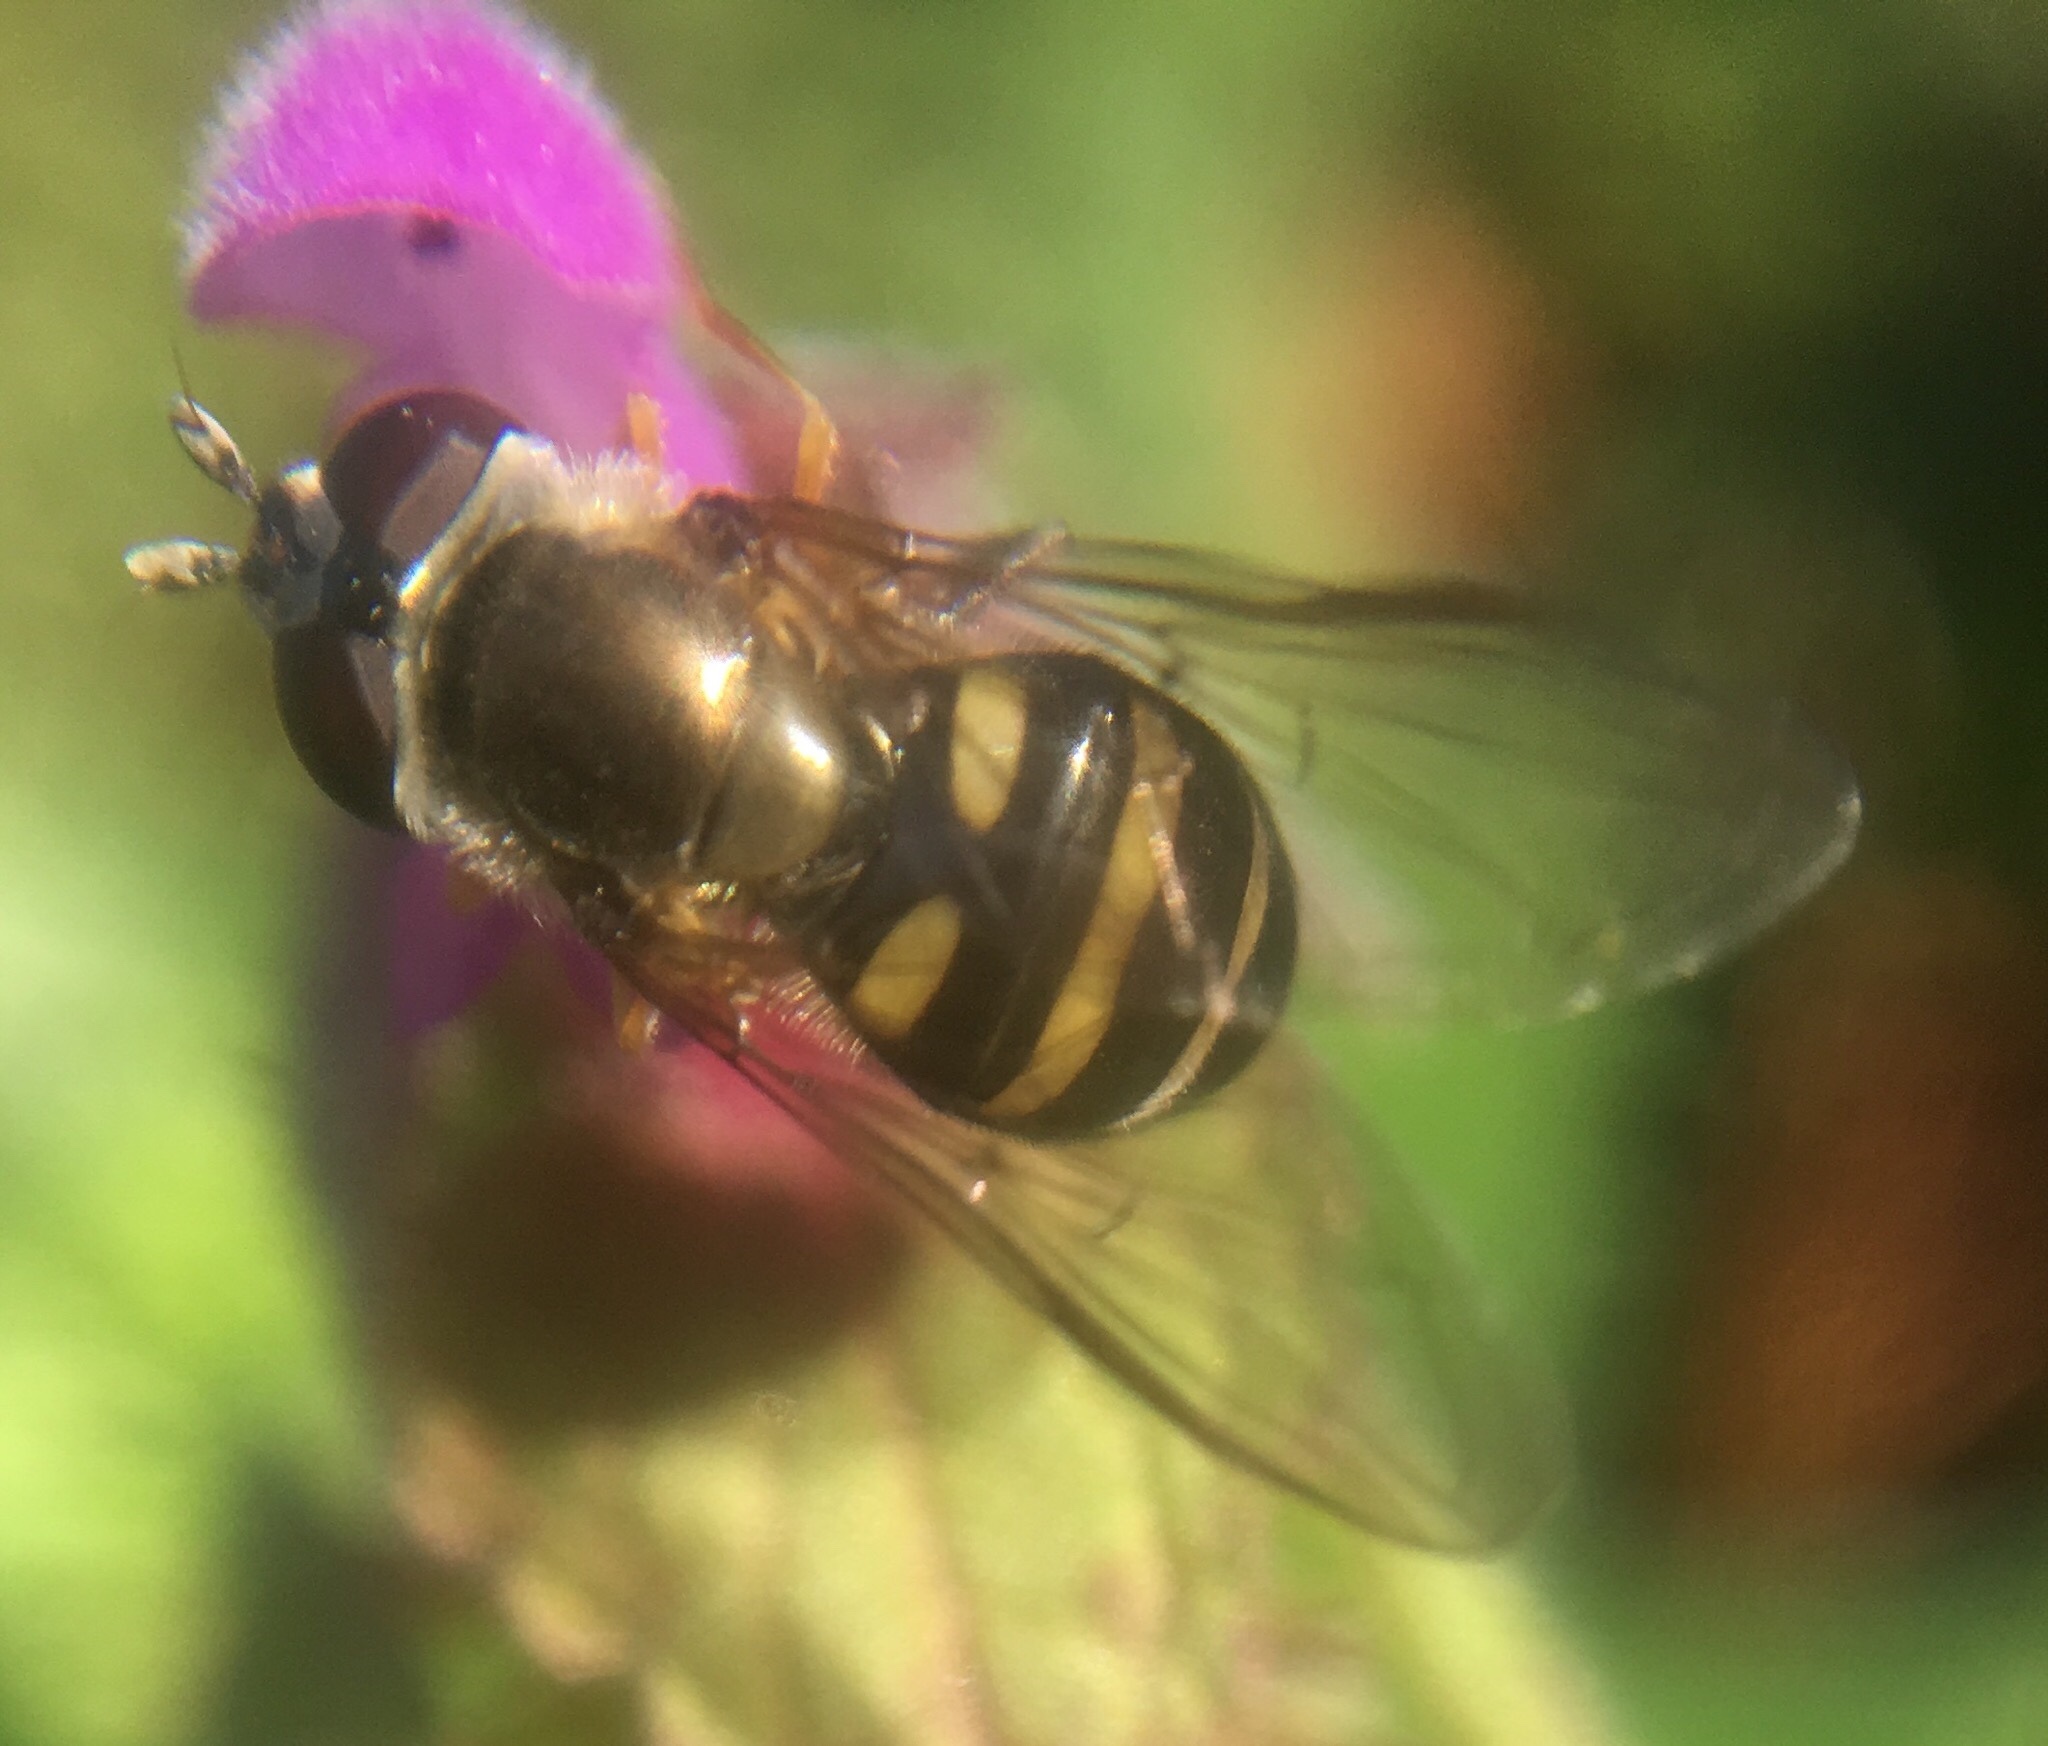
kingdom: Animalia
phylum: Arthropoda
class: Insecta
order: Diptera
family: Syrphidae
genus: Eupeodes
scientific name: Eupeodes
